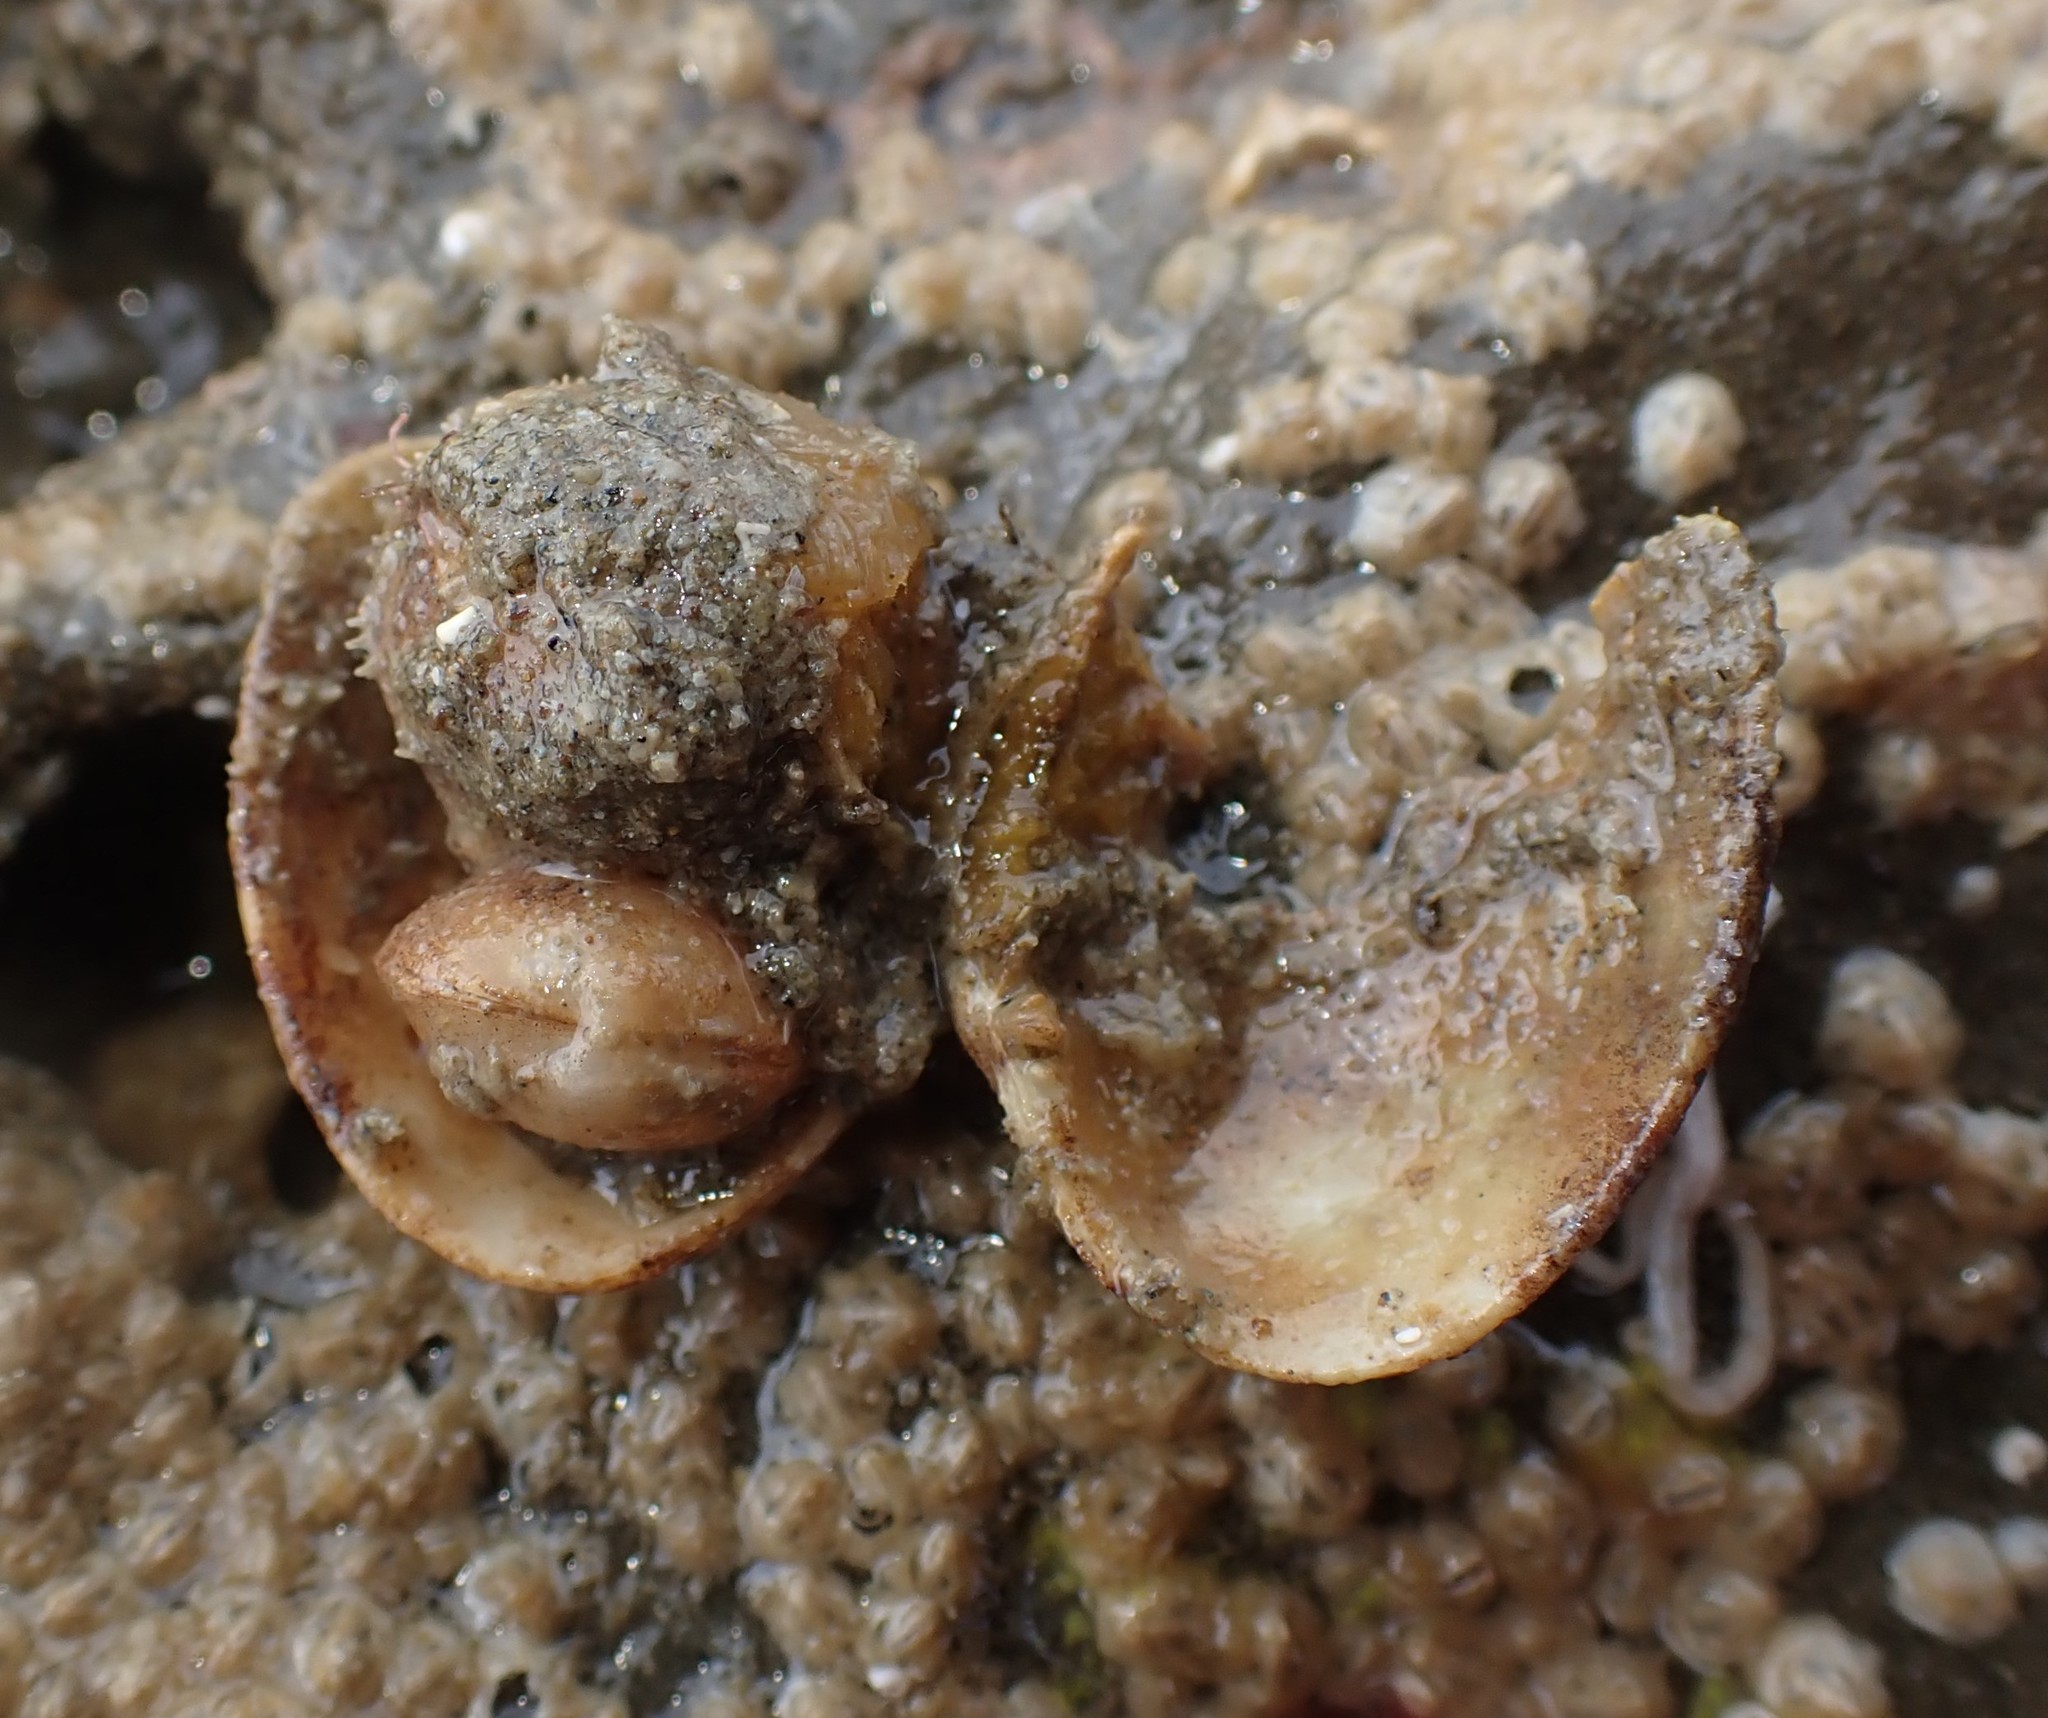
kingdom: Animalia
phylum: Mollusca
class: Bivalvia
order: Venerida
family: Ungulinidae
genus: Zemysina
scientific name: Zemysina striatula
